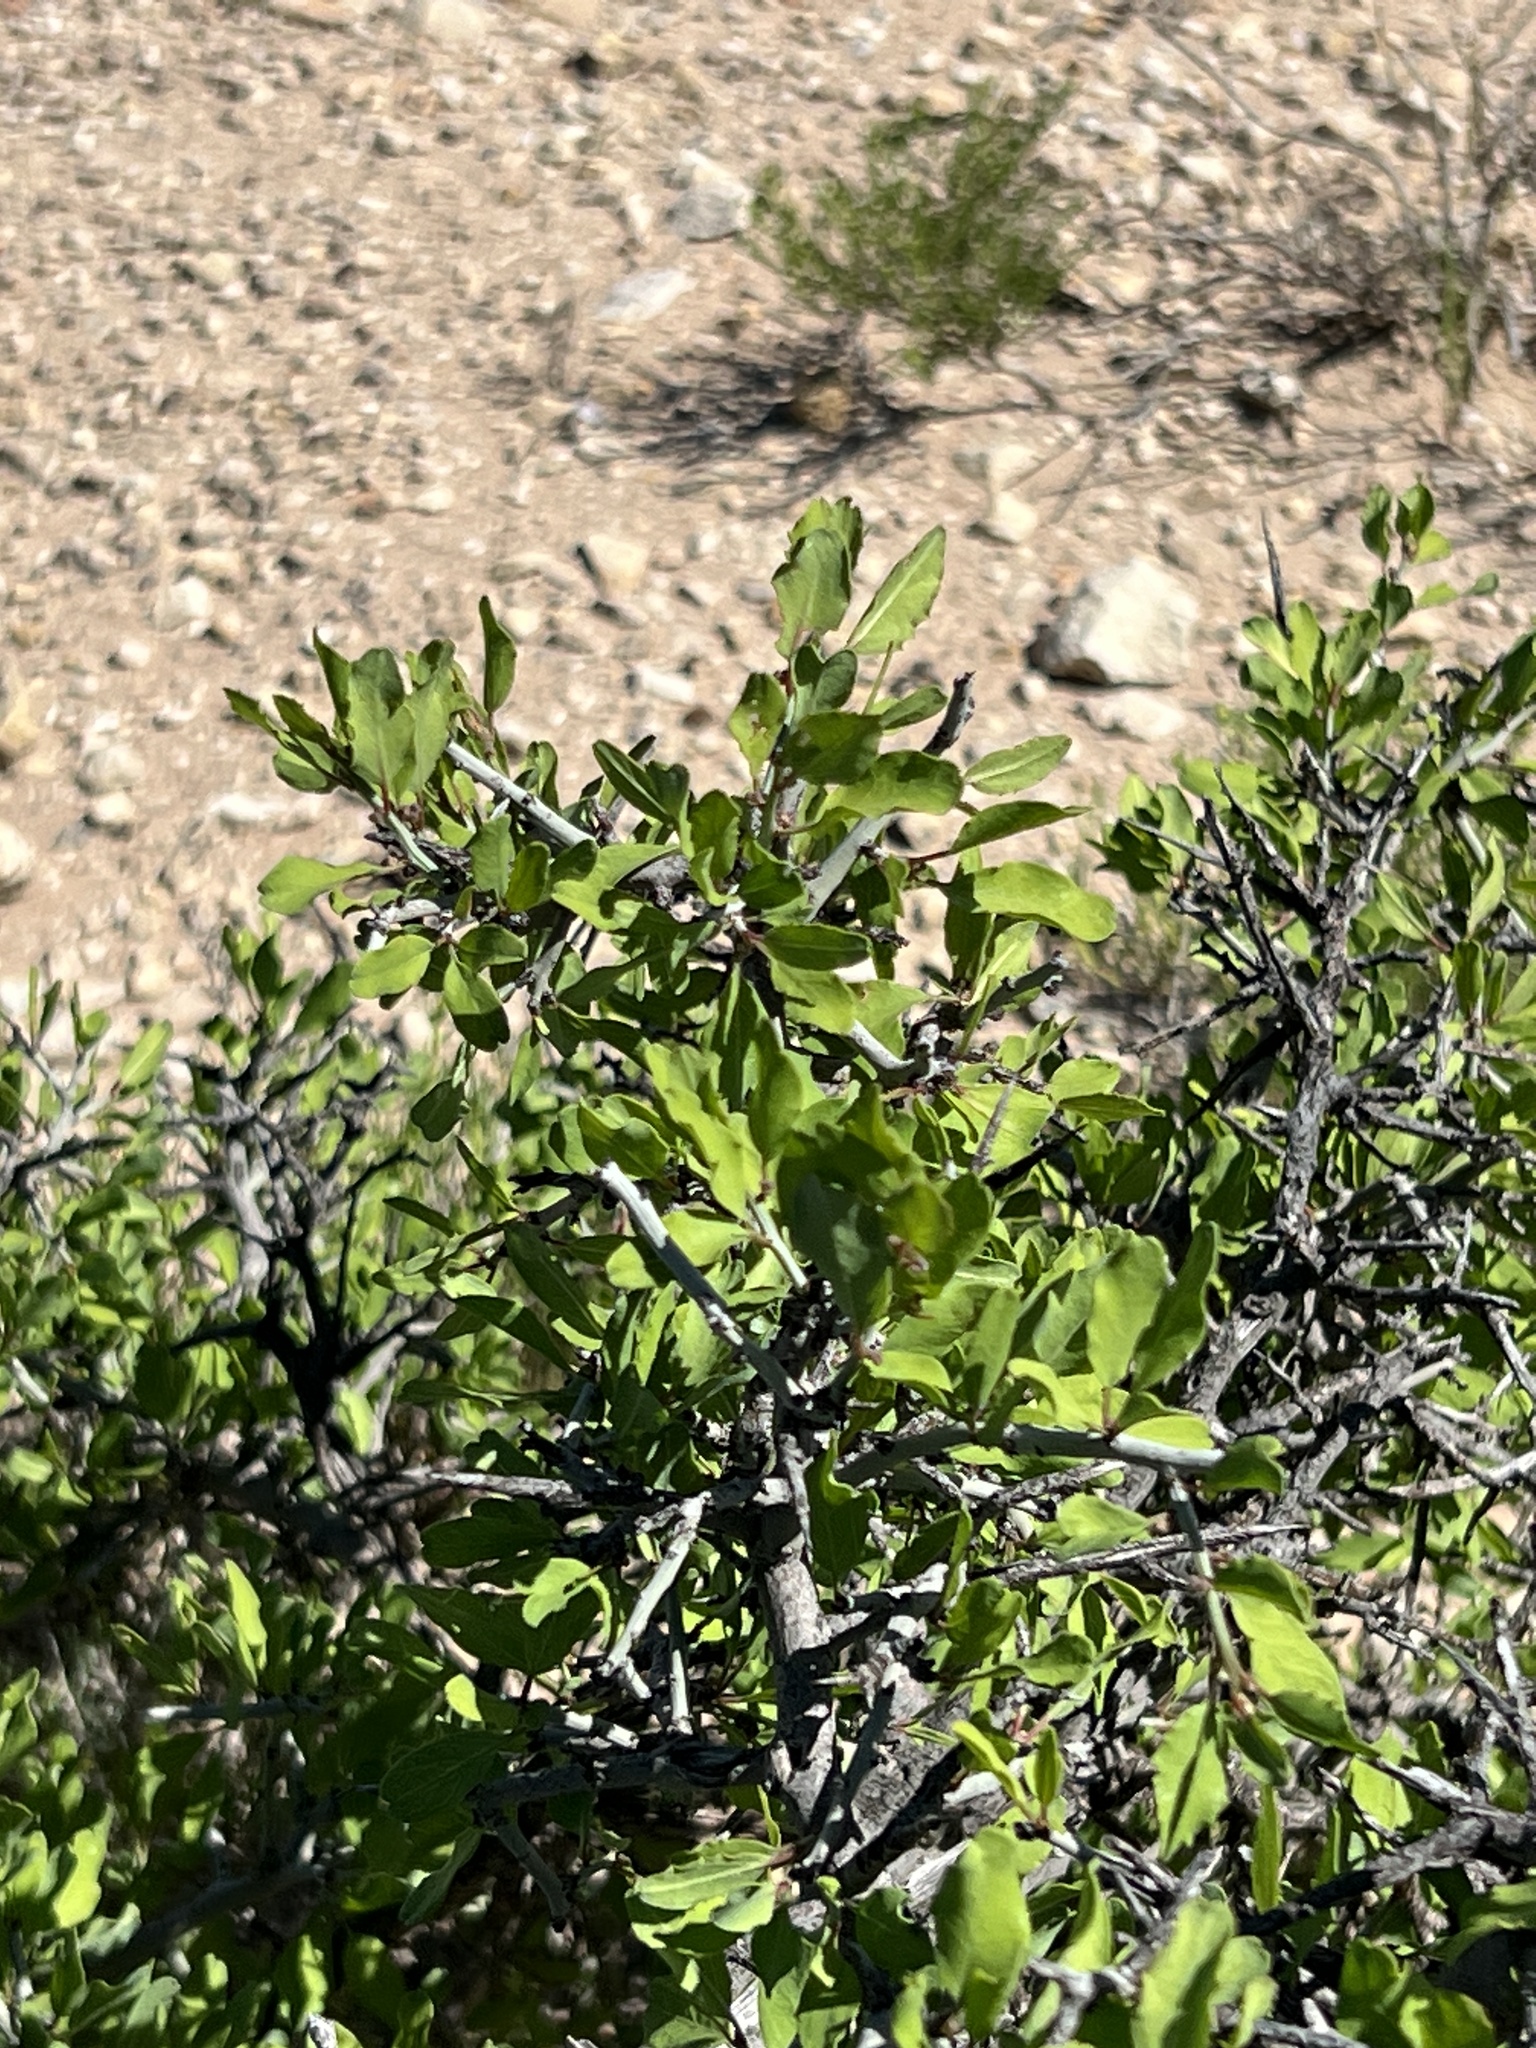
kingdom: Plantae
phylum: Tracheophyta
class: Magnoliopsida
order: Rosales
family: Rhamnaceae
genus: Sarcomphalus
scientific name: Sarcomphalus obtusifolius
